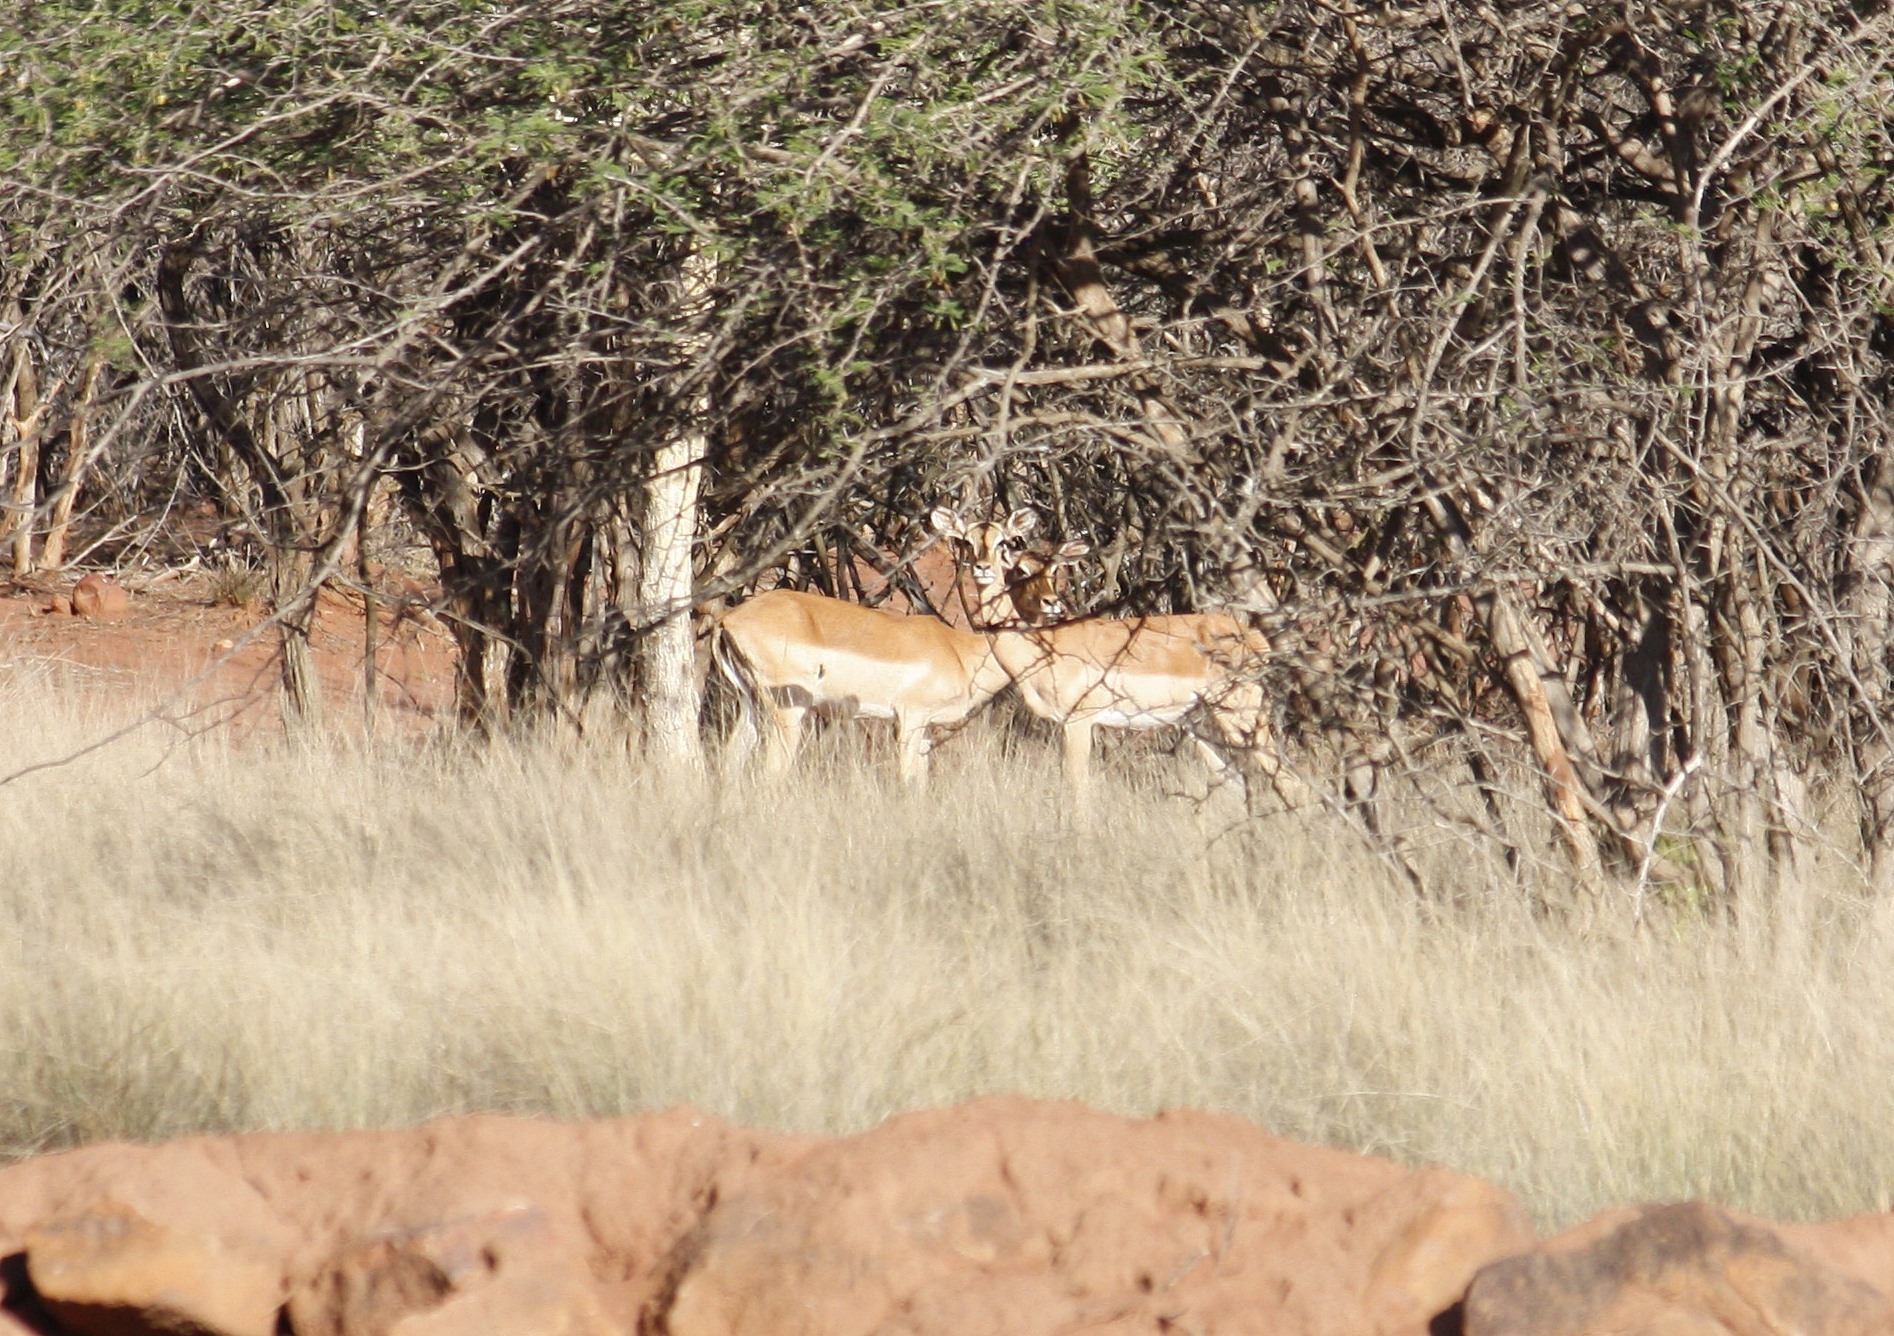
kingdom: Animalia
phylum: Chordata
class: Mammalia
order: Artiodactyla
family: Bovidae
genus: Aepyceros
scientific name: Aepyceros melampus
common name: Impala
